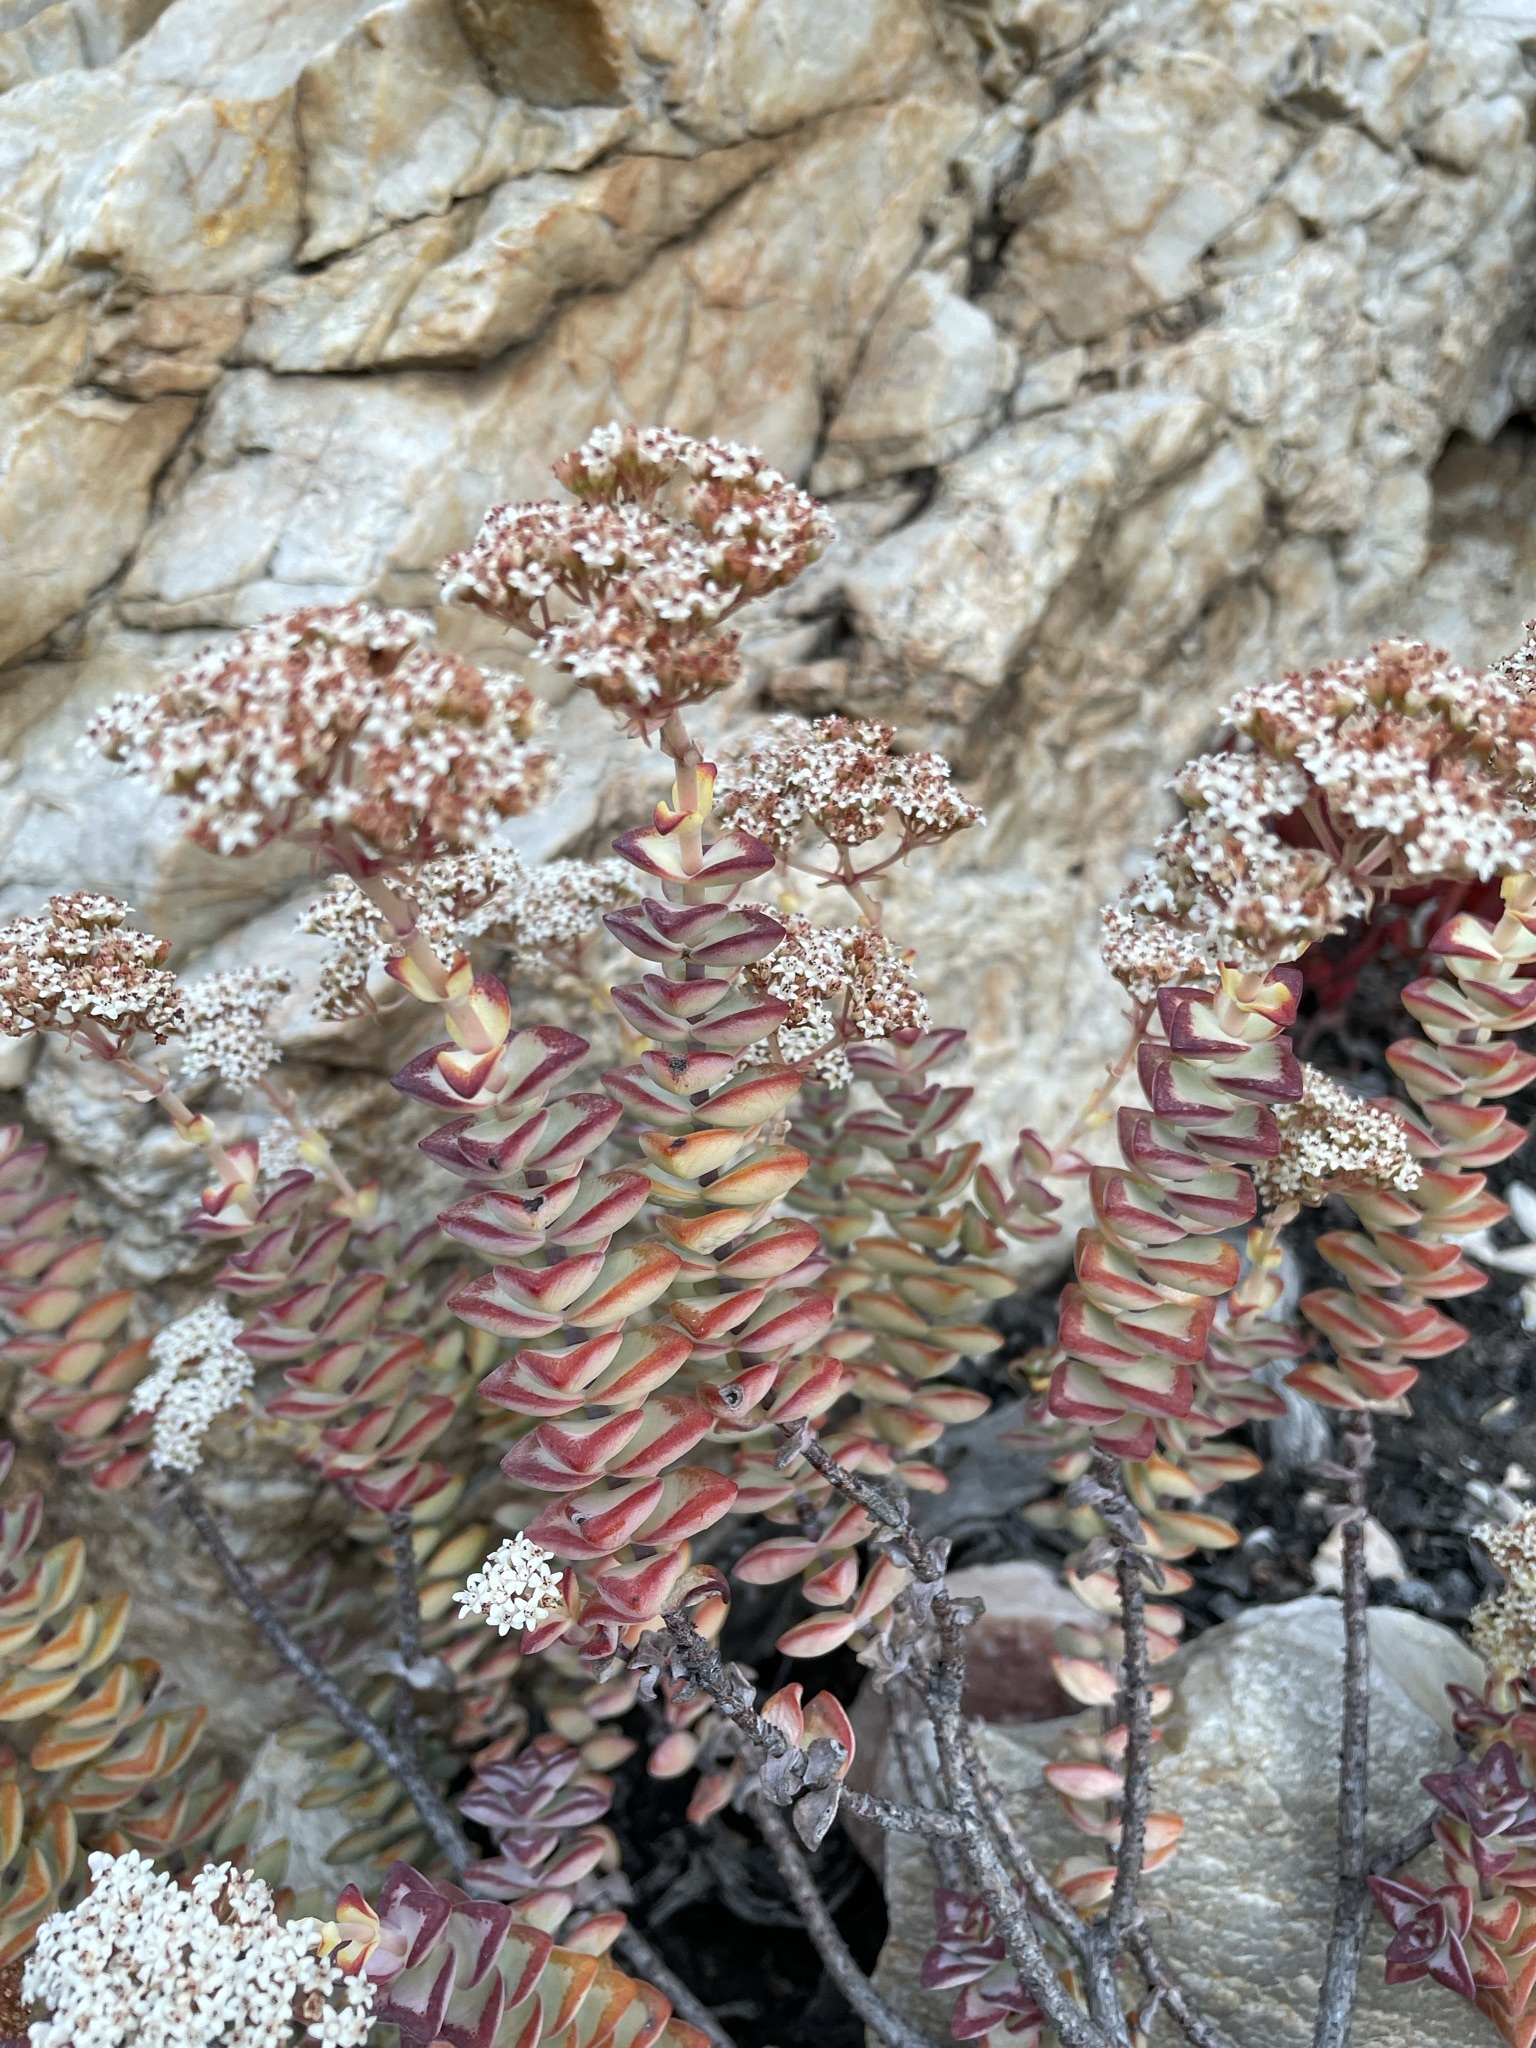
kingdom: Plantae
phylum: Tracheophyta
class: Magnoliopsida
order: Saxifragales
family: Crassulaceae
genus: Crassula
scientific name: Crassula rupestris
